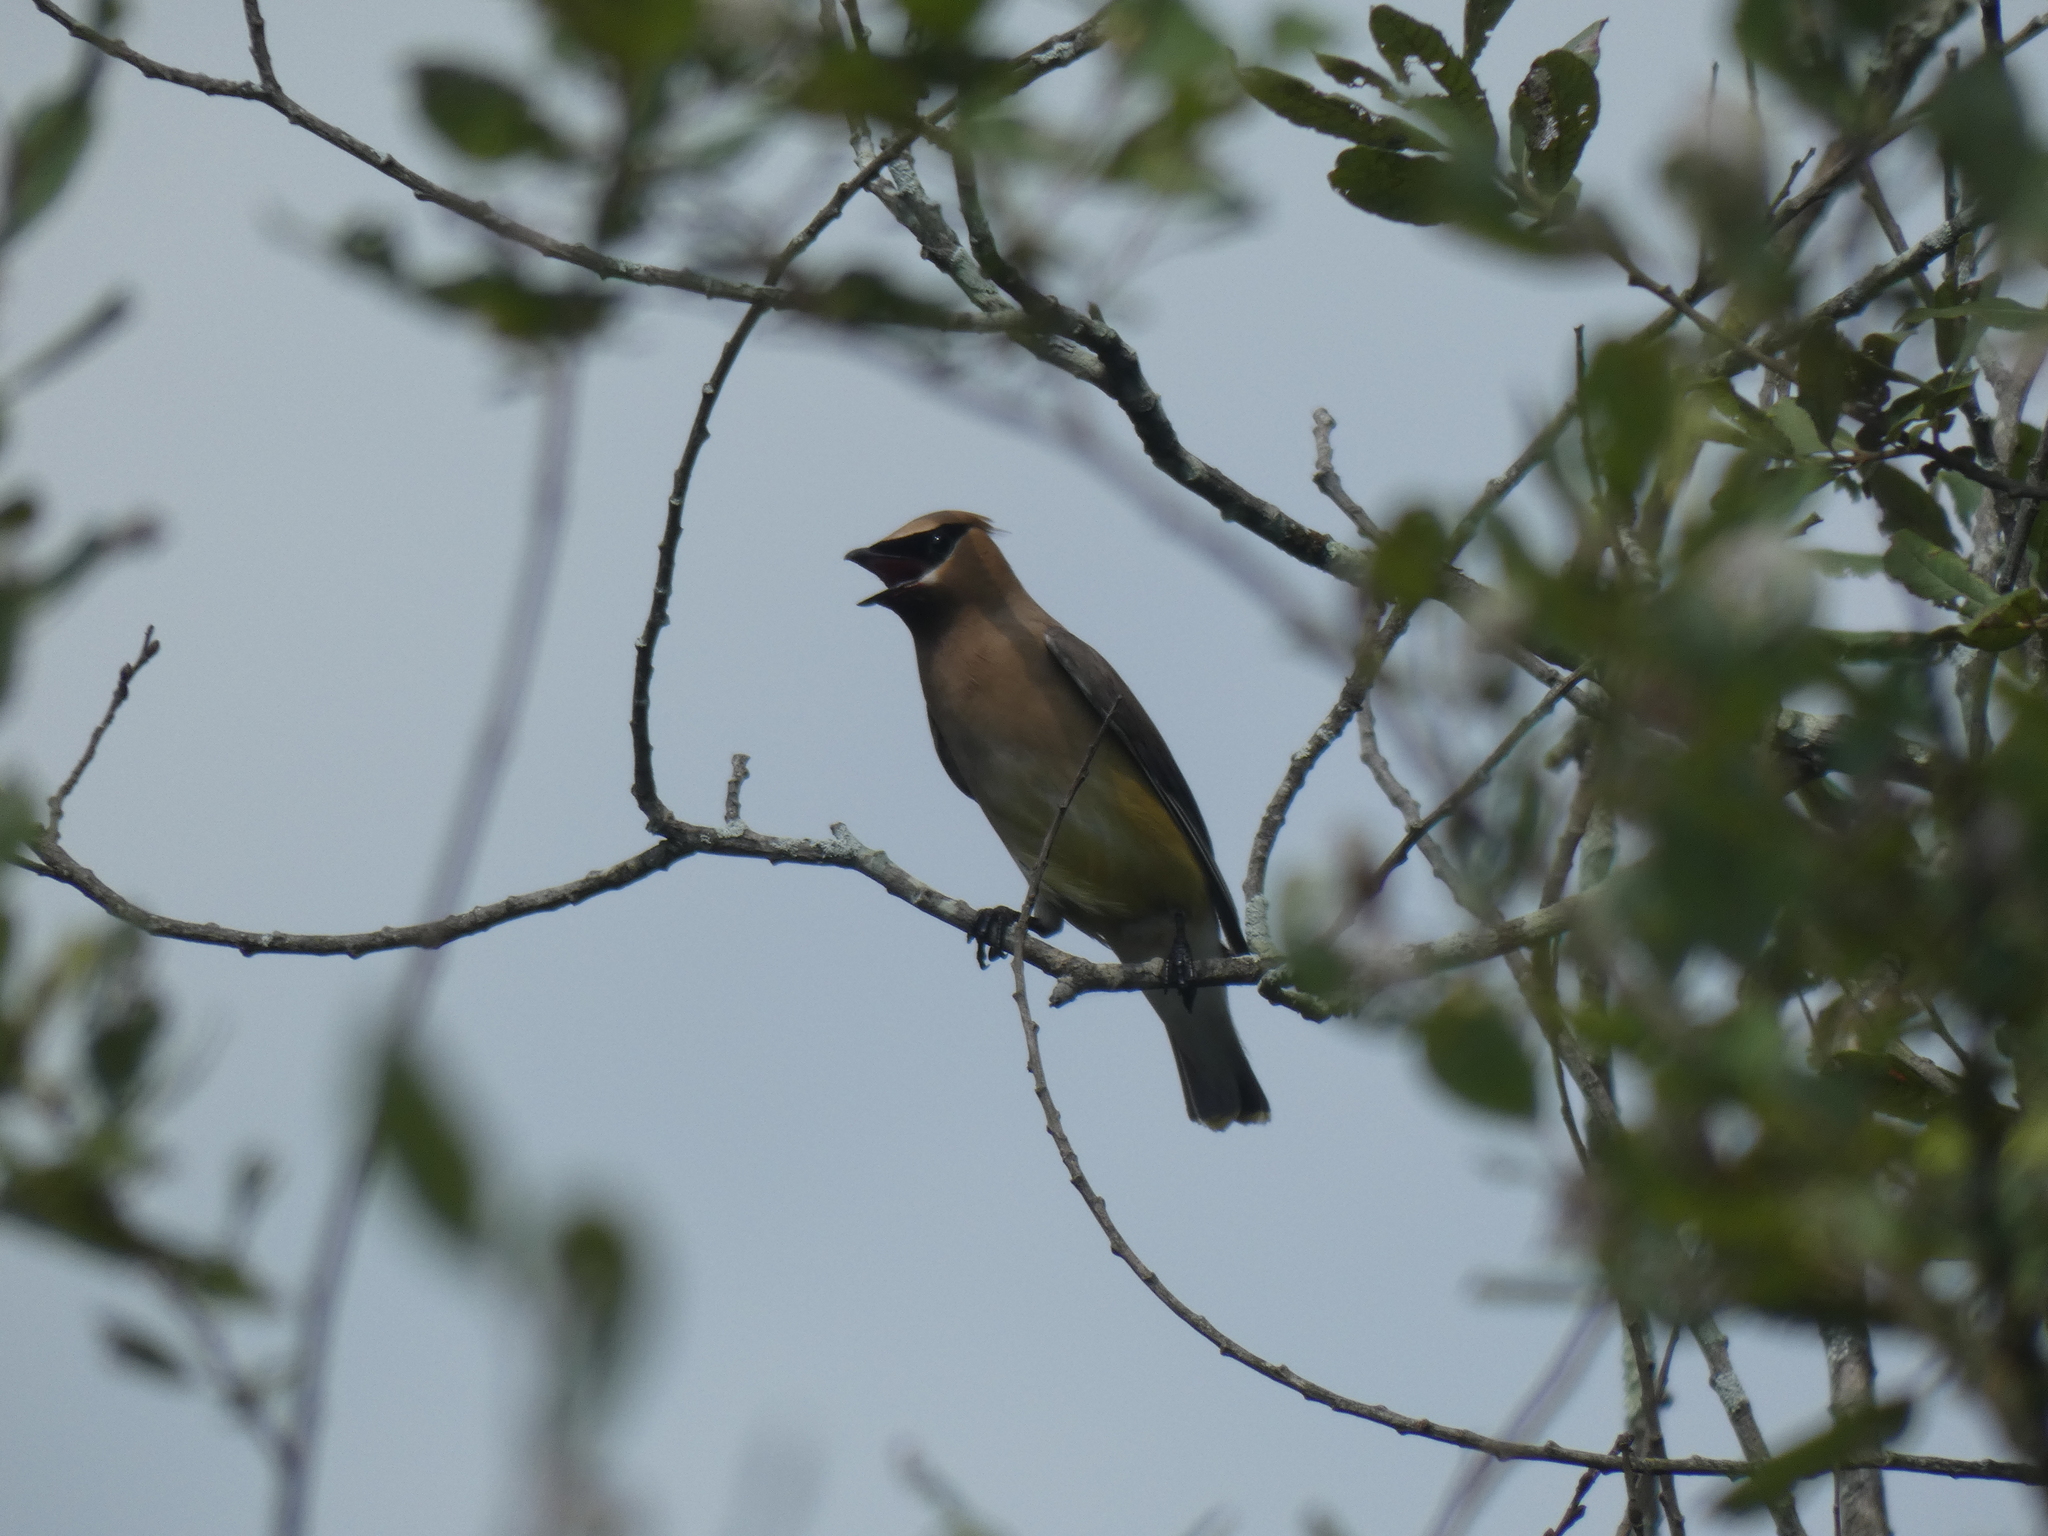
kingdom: Animalia
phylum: Chordata
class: Aves
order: Passeriformes
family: Bombycillidae
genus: Bombycilla
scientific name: Bombycilla cedrorum
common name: Cedar waxwing
